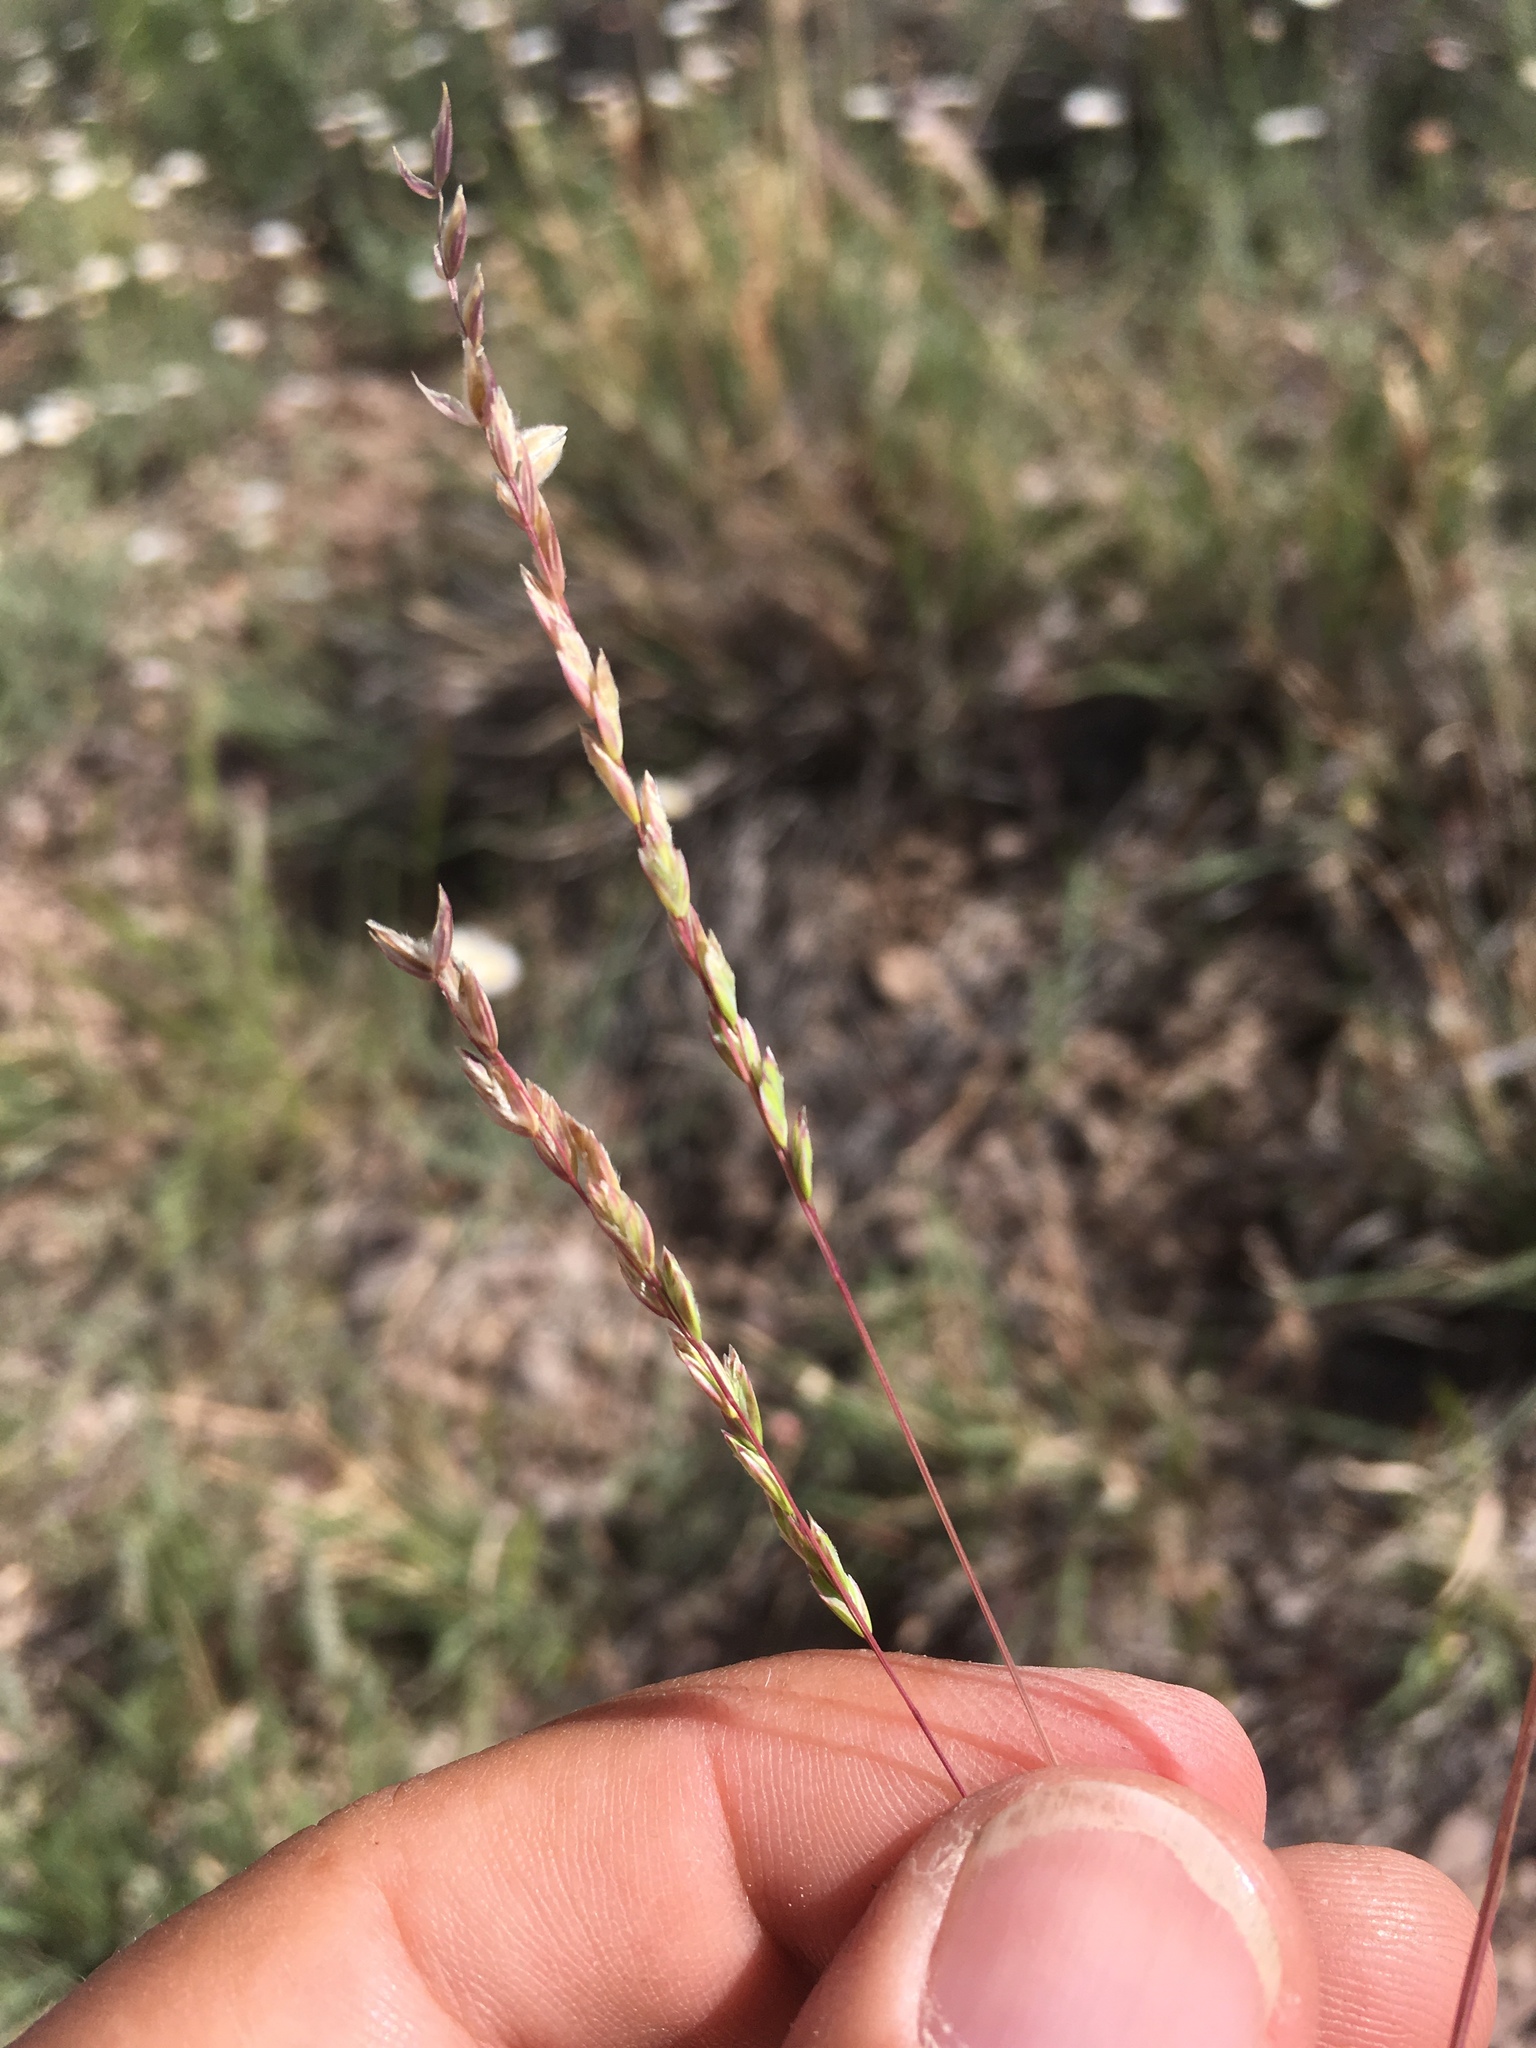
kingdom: Plantae
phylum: Tracheophyta
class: Liliopsida
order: Poales
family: Poaceae
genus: Poa
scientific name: Poa bigelovii
